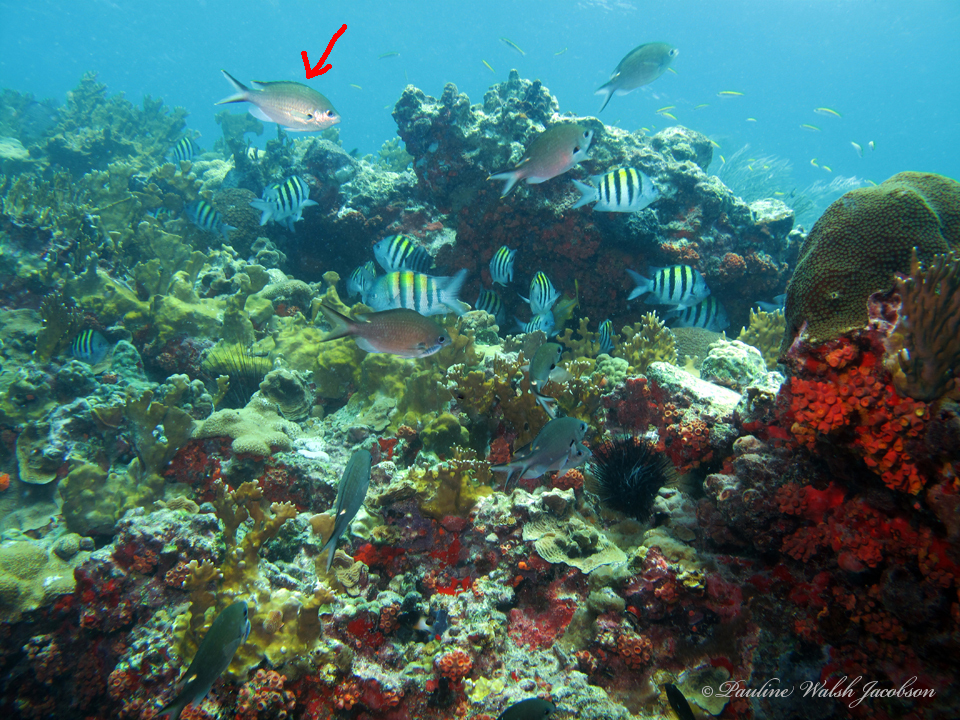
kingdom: Animalia
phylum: Chordata
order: Perciformes
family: Pomacentridae
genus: Chromis
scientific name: Chromis multilineata
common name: Brown chromis
